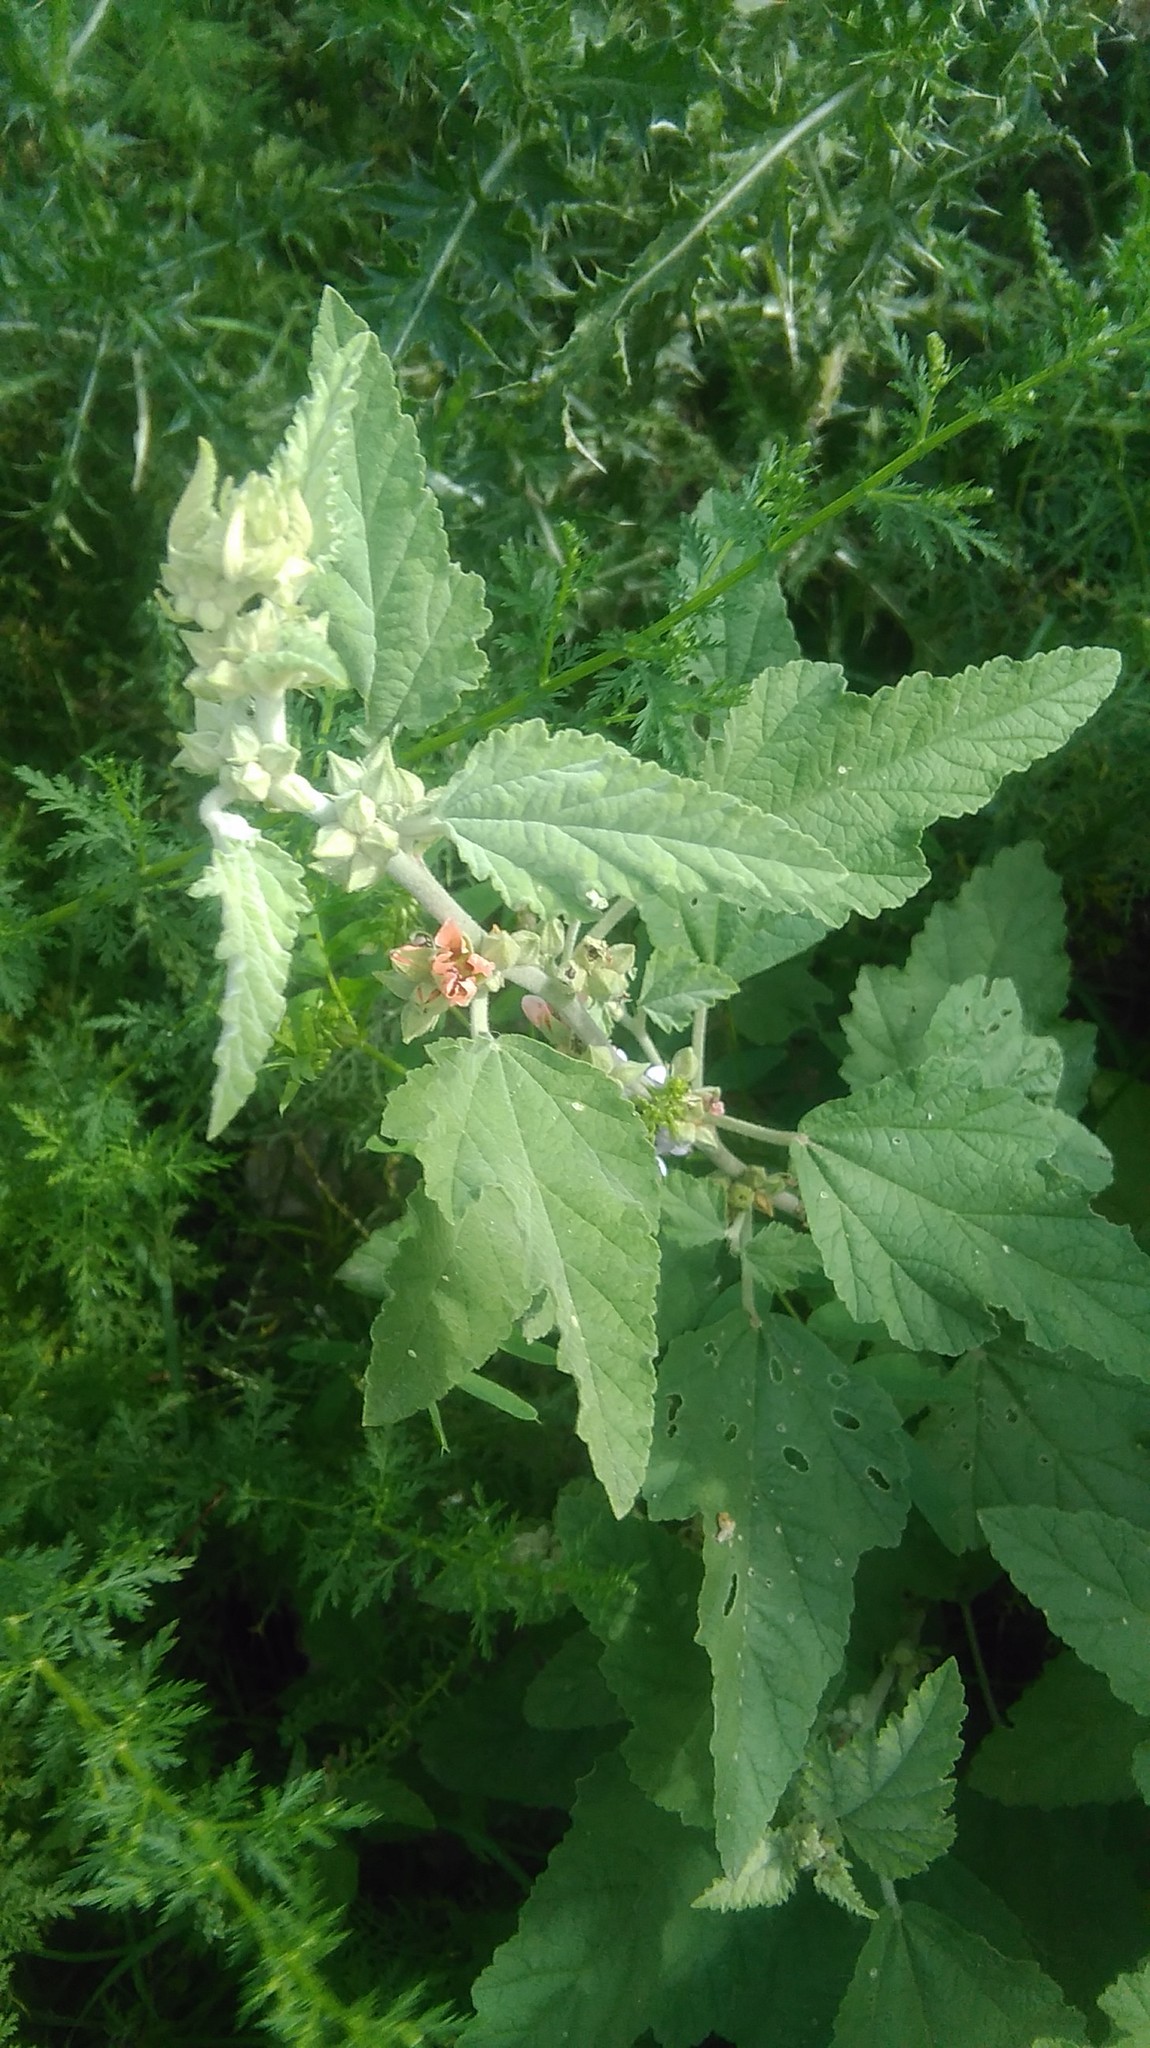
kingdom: Plantae
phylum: Tracheophyta
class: Magnoliopsida
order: Malvales
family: Malvaceae
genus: Sphaeralcea
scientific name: Sphaeralcea bonariensis
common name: Latin globemallow
